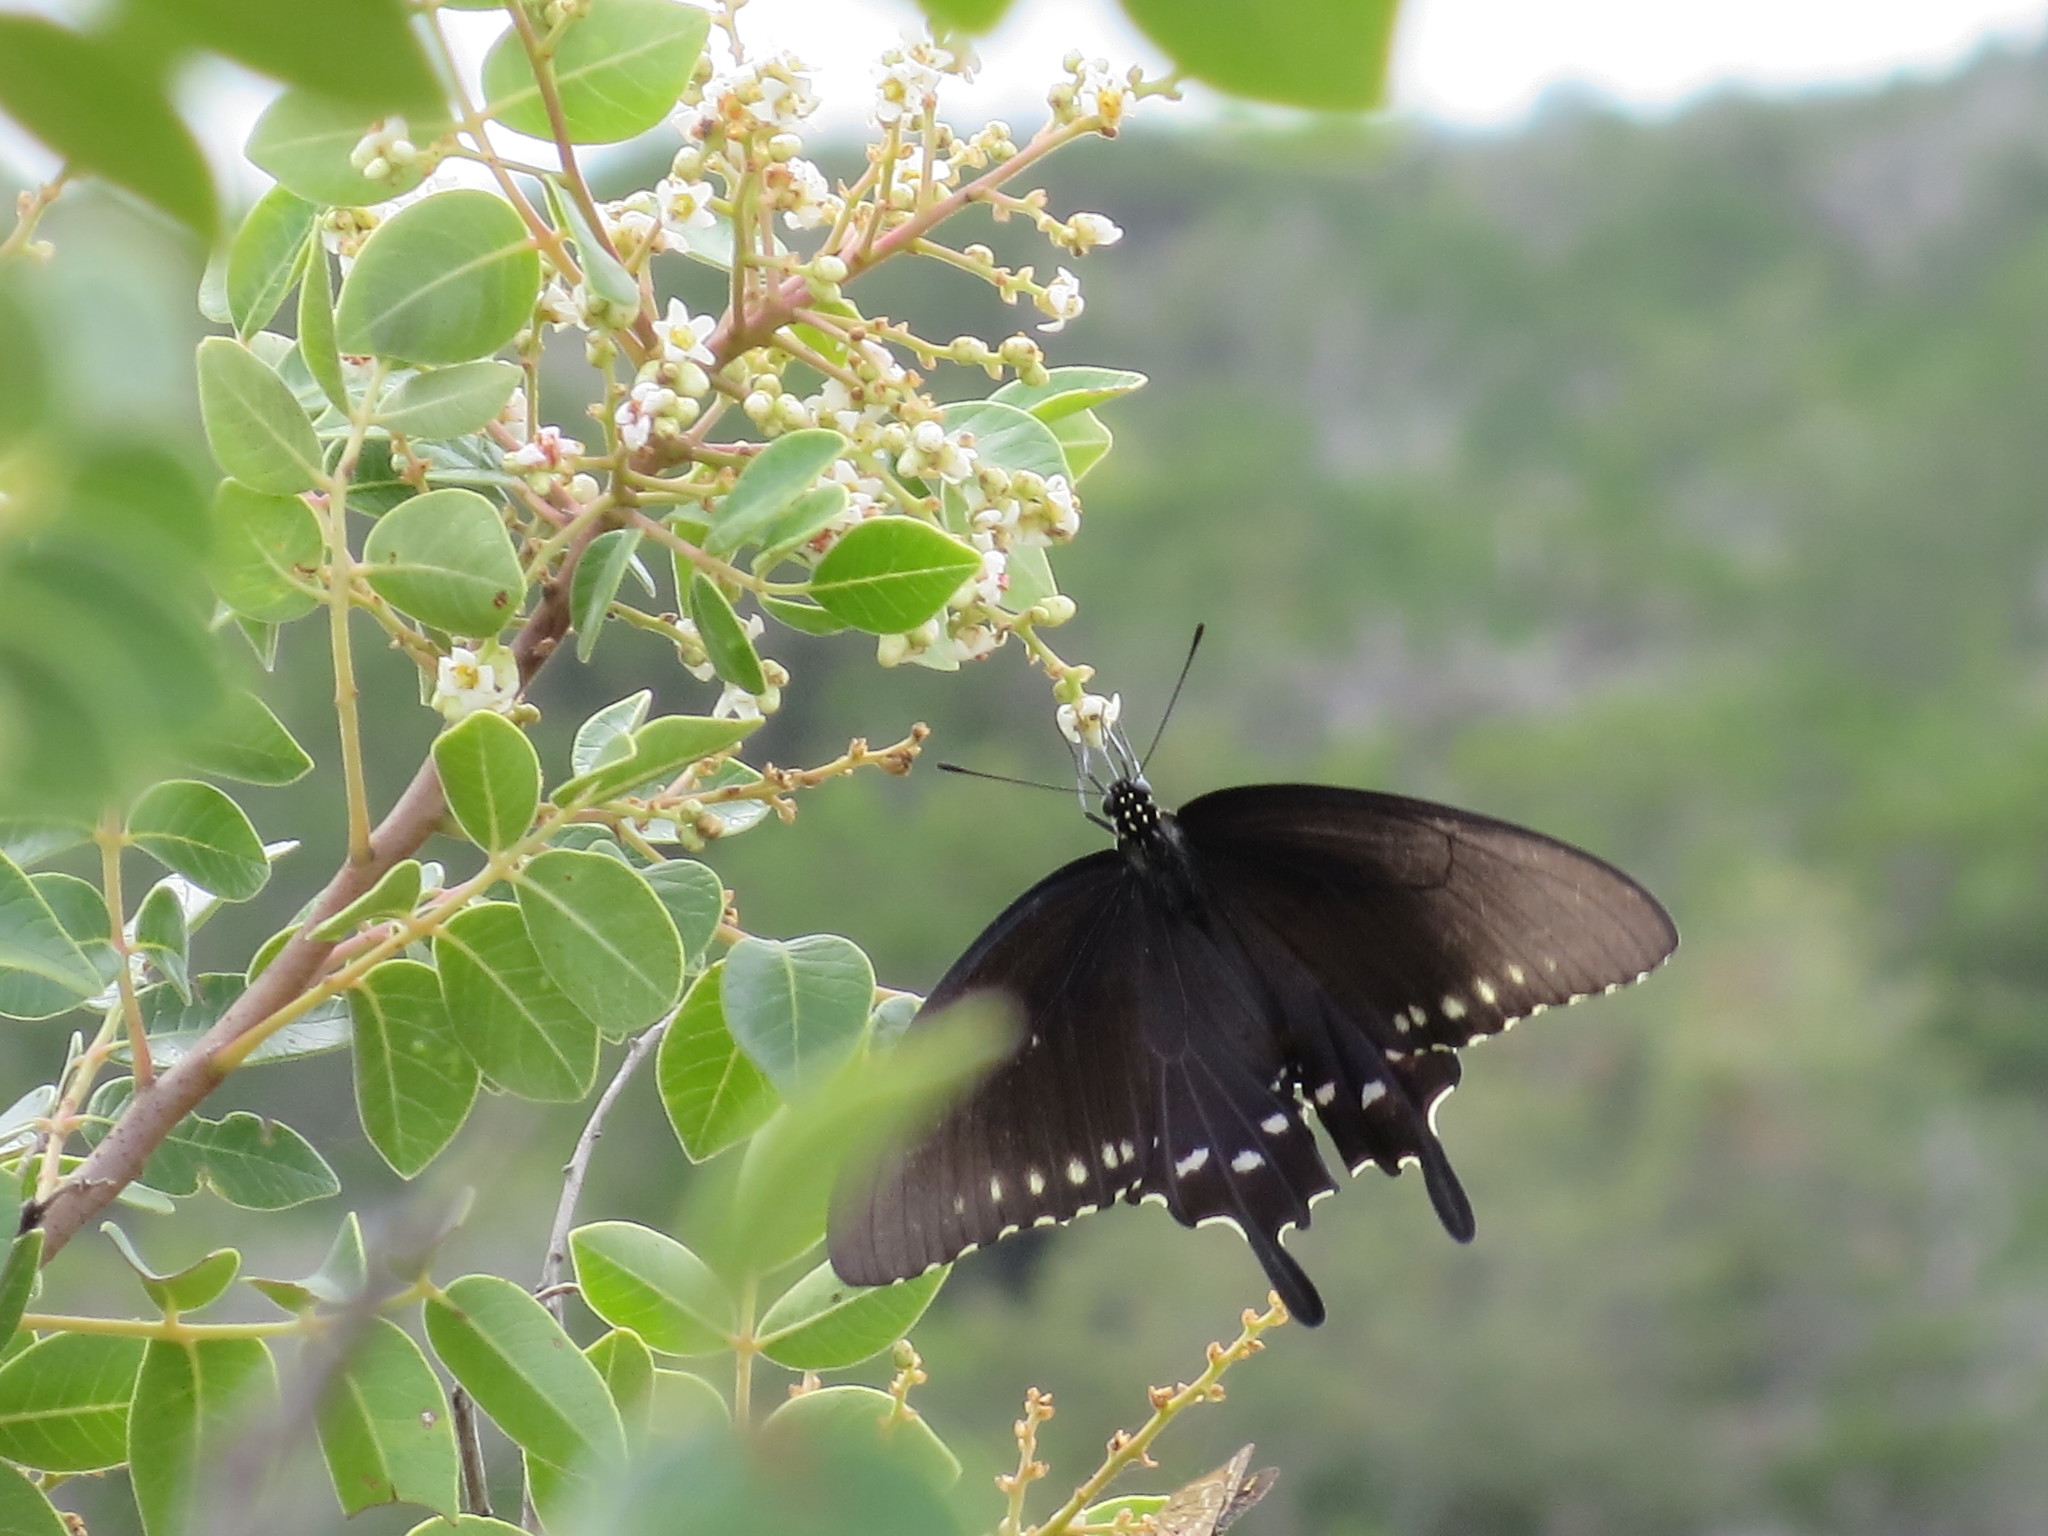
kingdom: Animalia
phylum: Arthropoda
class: Insecta
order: Lepidoptera
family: Papilionidae
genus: Battus
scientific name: Battus philenor
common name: Pipevine swallowtail
